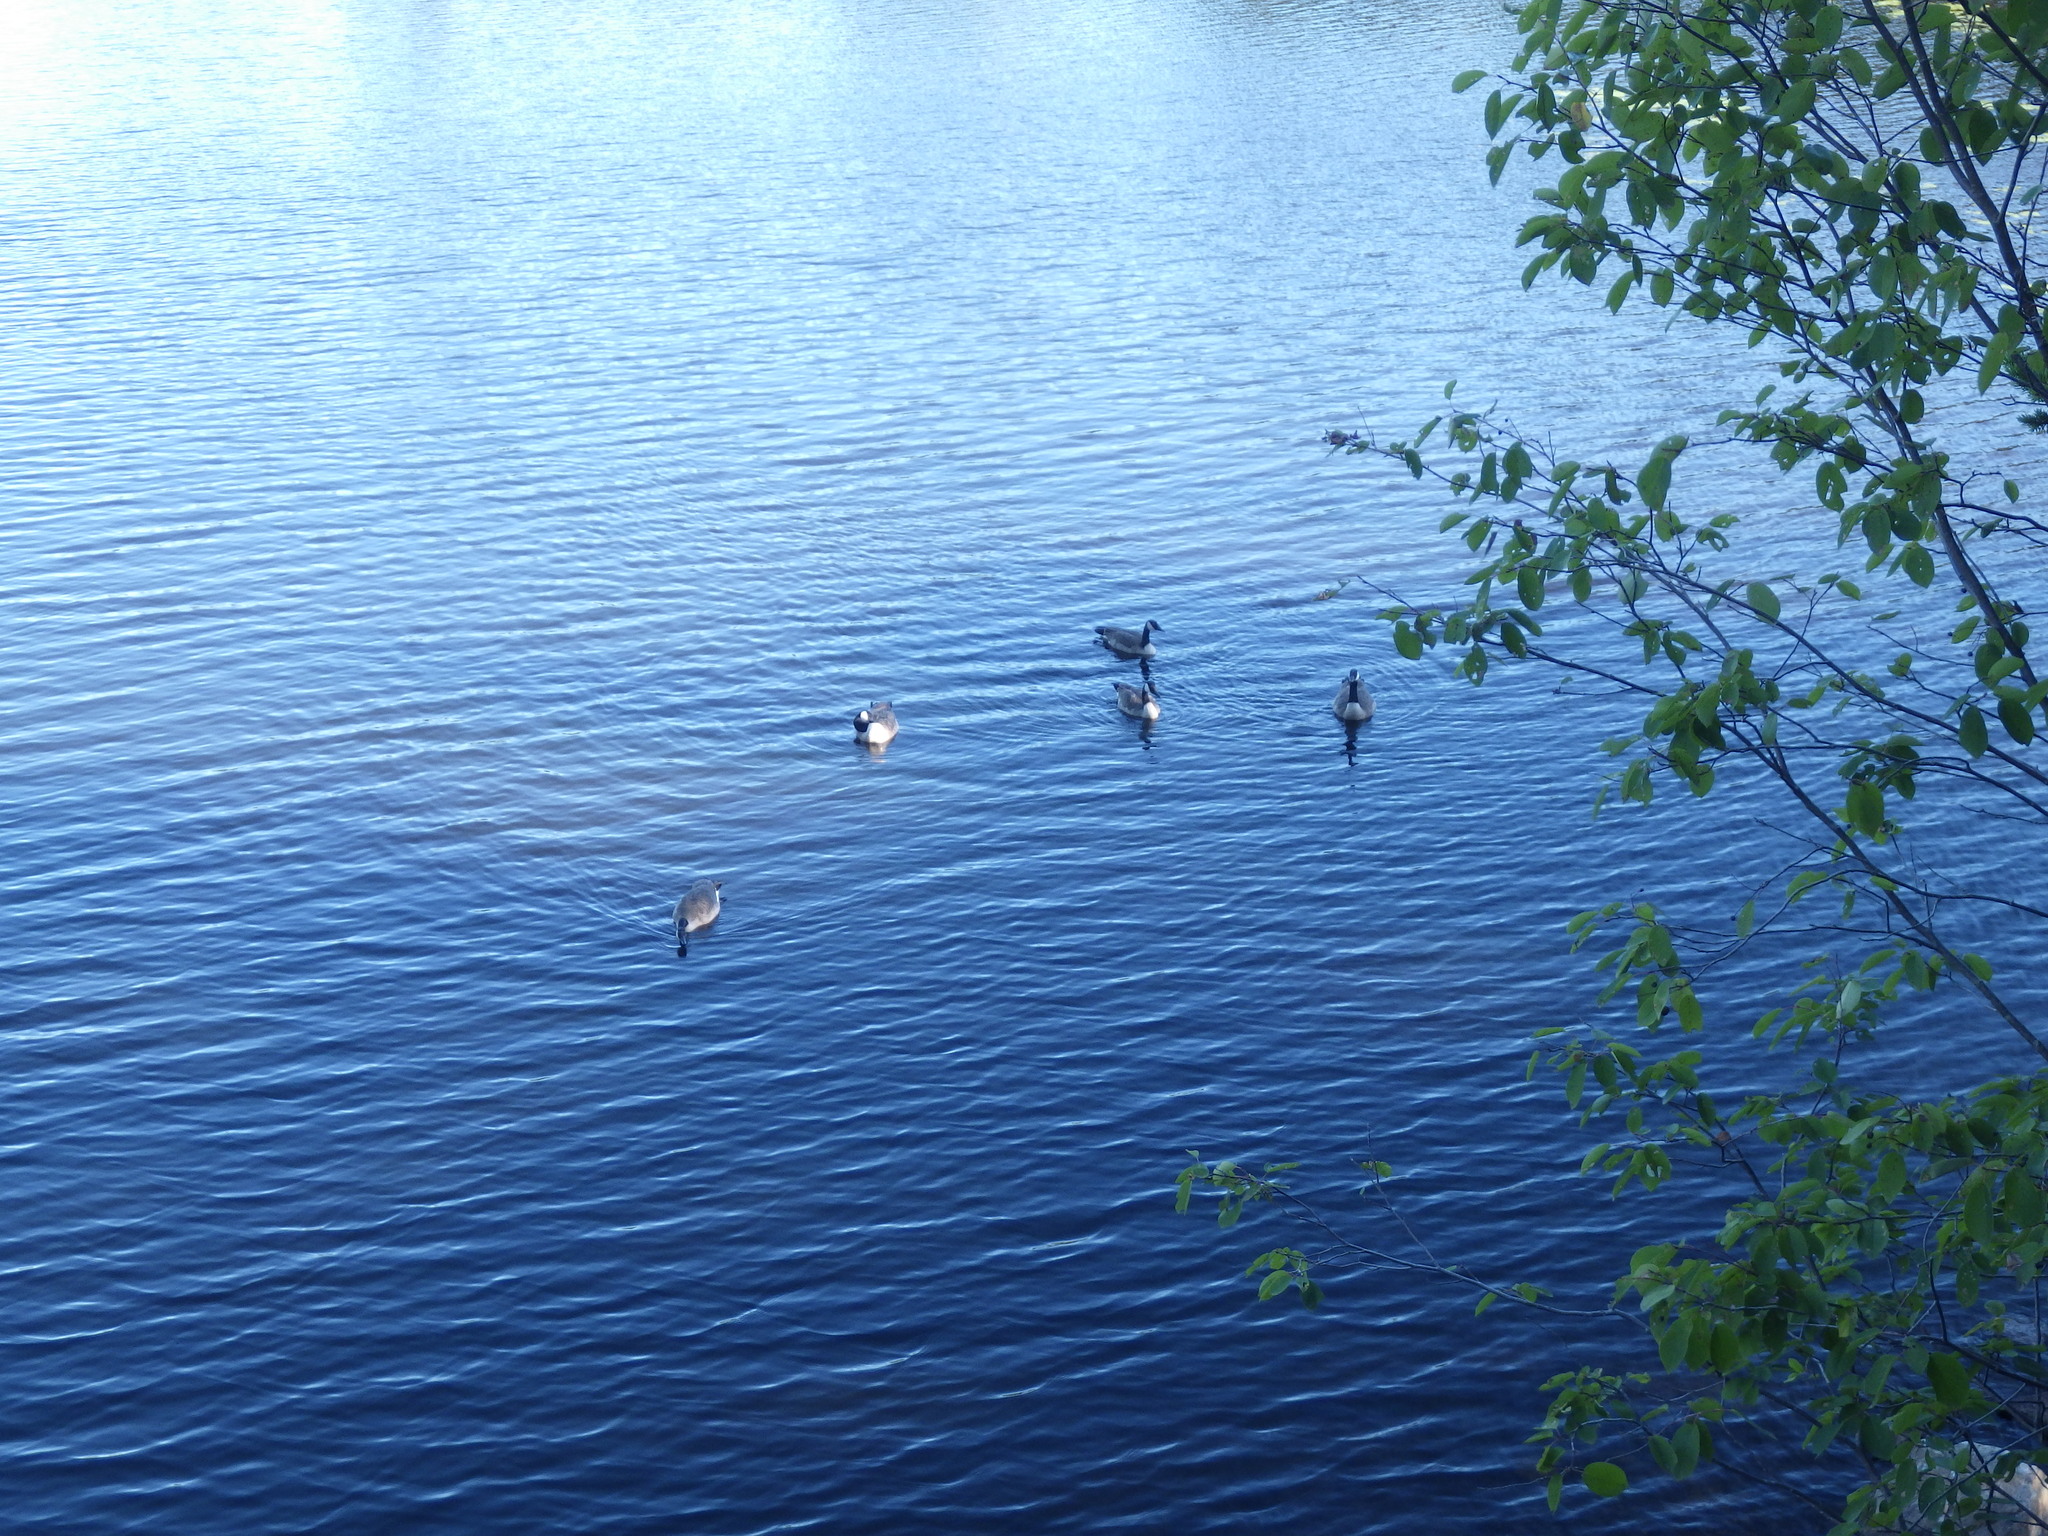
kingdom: Animalia
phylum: Chordata
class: Aves
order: Anseriformes
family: Anatidae
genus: Branta
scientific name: Branta canadensis
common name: Canada goose
